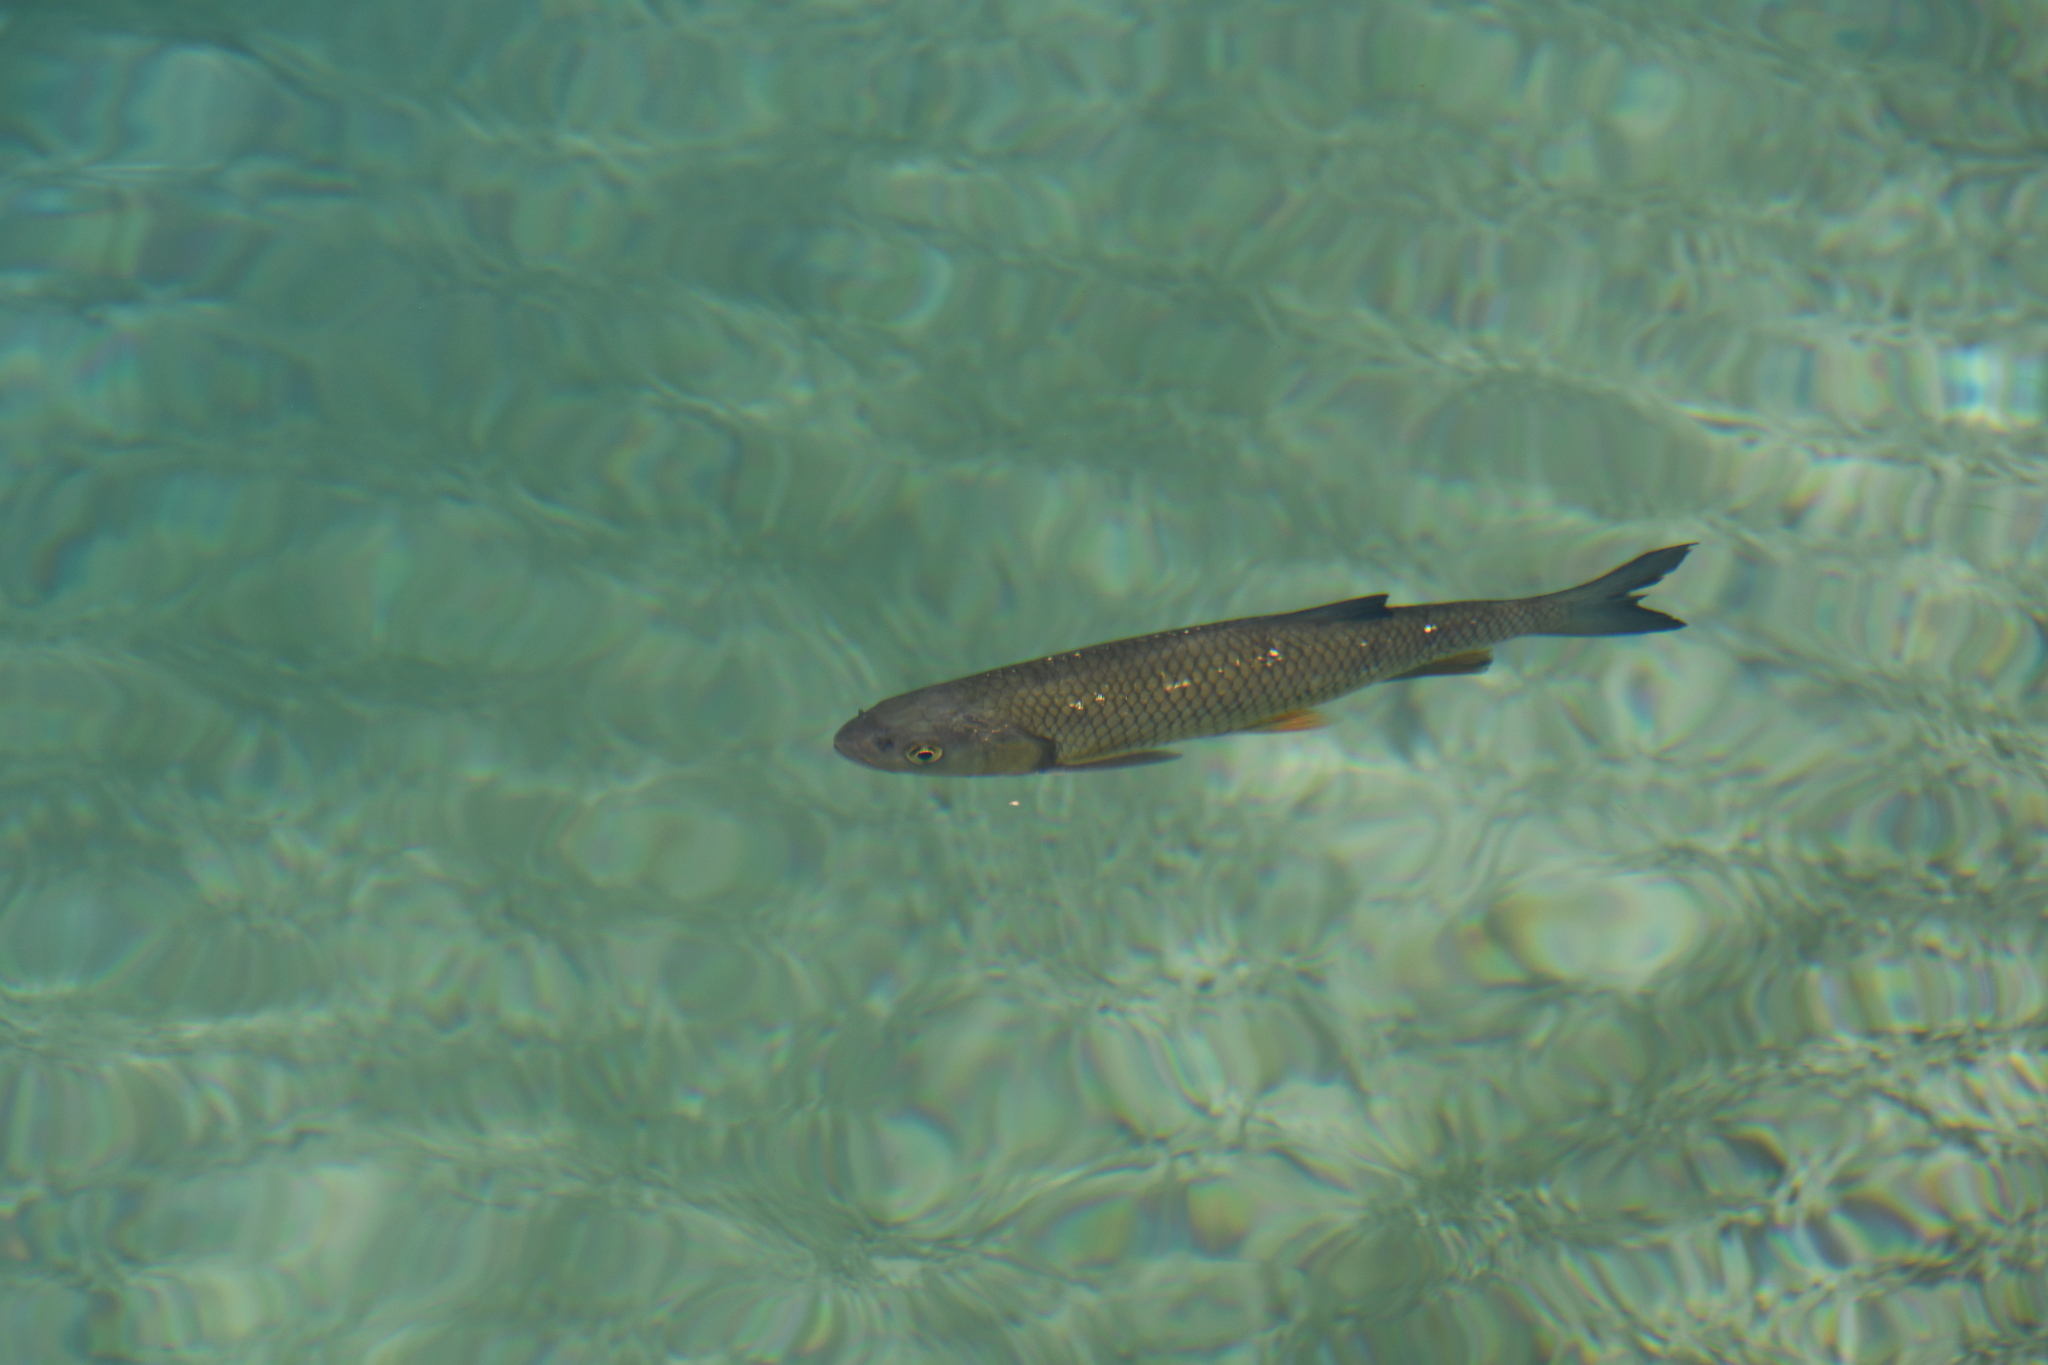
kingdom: Animalia
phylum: Chordata
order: Cypriniformes
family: Cyprinidae
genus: Squalius
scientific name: Squalius cephalus
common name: Chub
